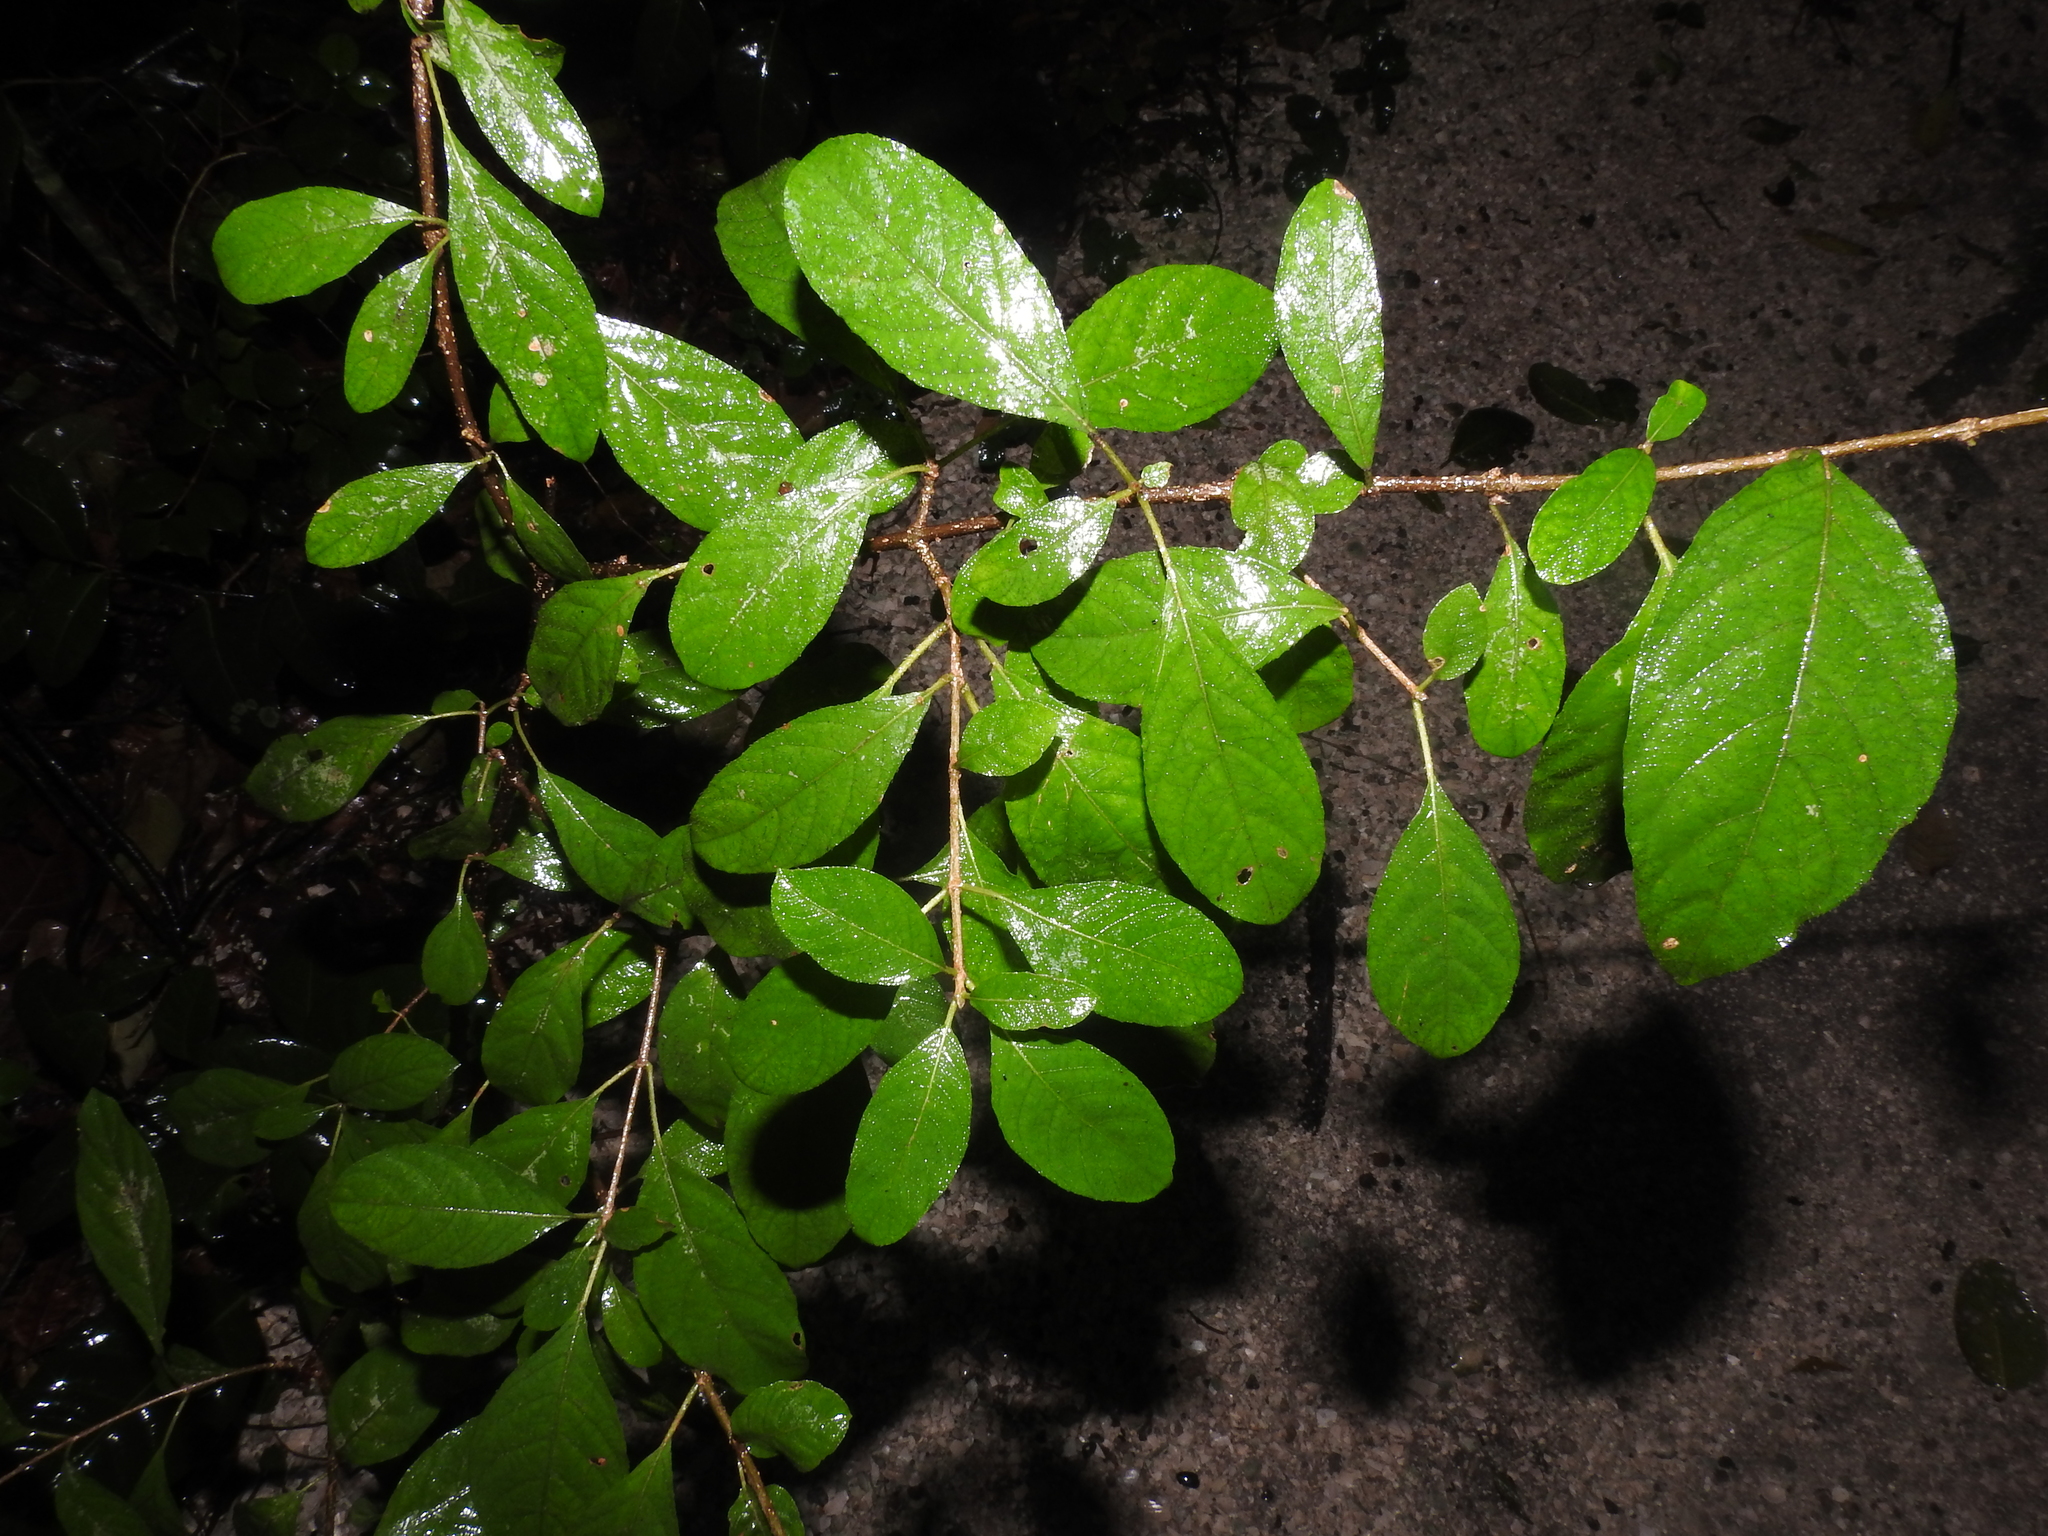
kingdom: Plantae
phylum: Tracheophyta
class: Magnoliopsida
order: Gentianales
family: Rubiaceae
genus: Guettarda
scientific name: Guettarda elliptica
